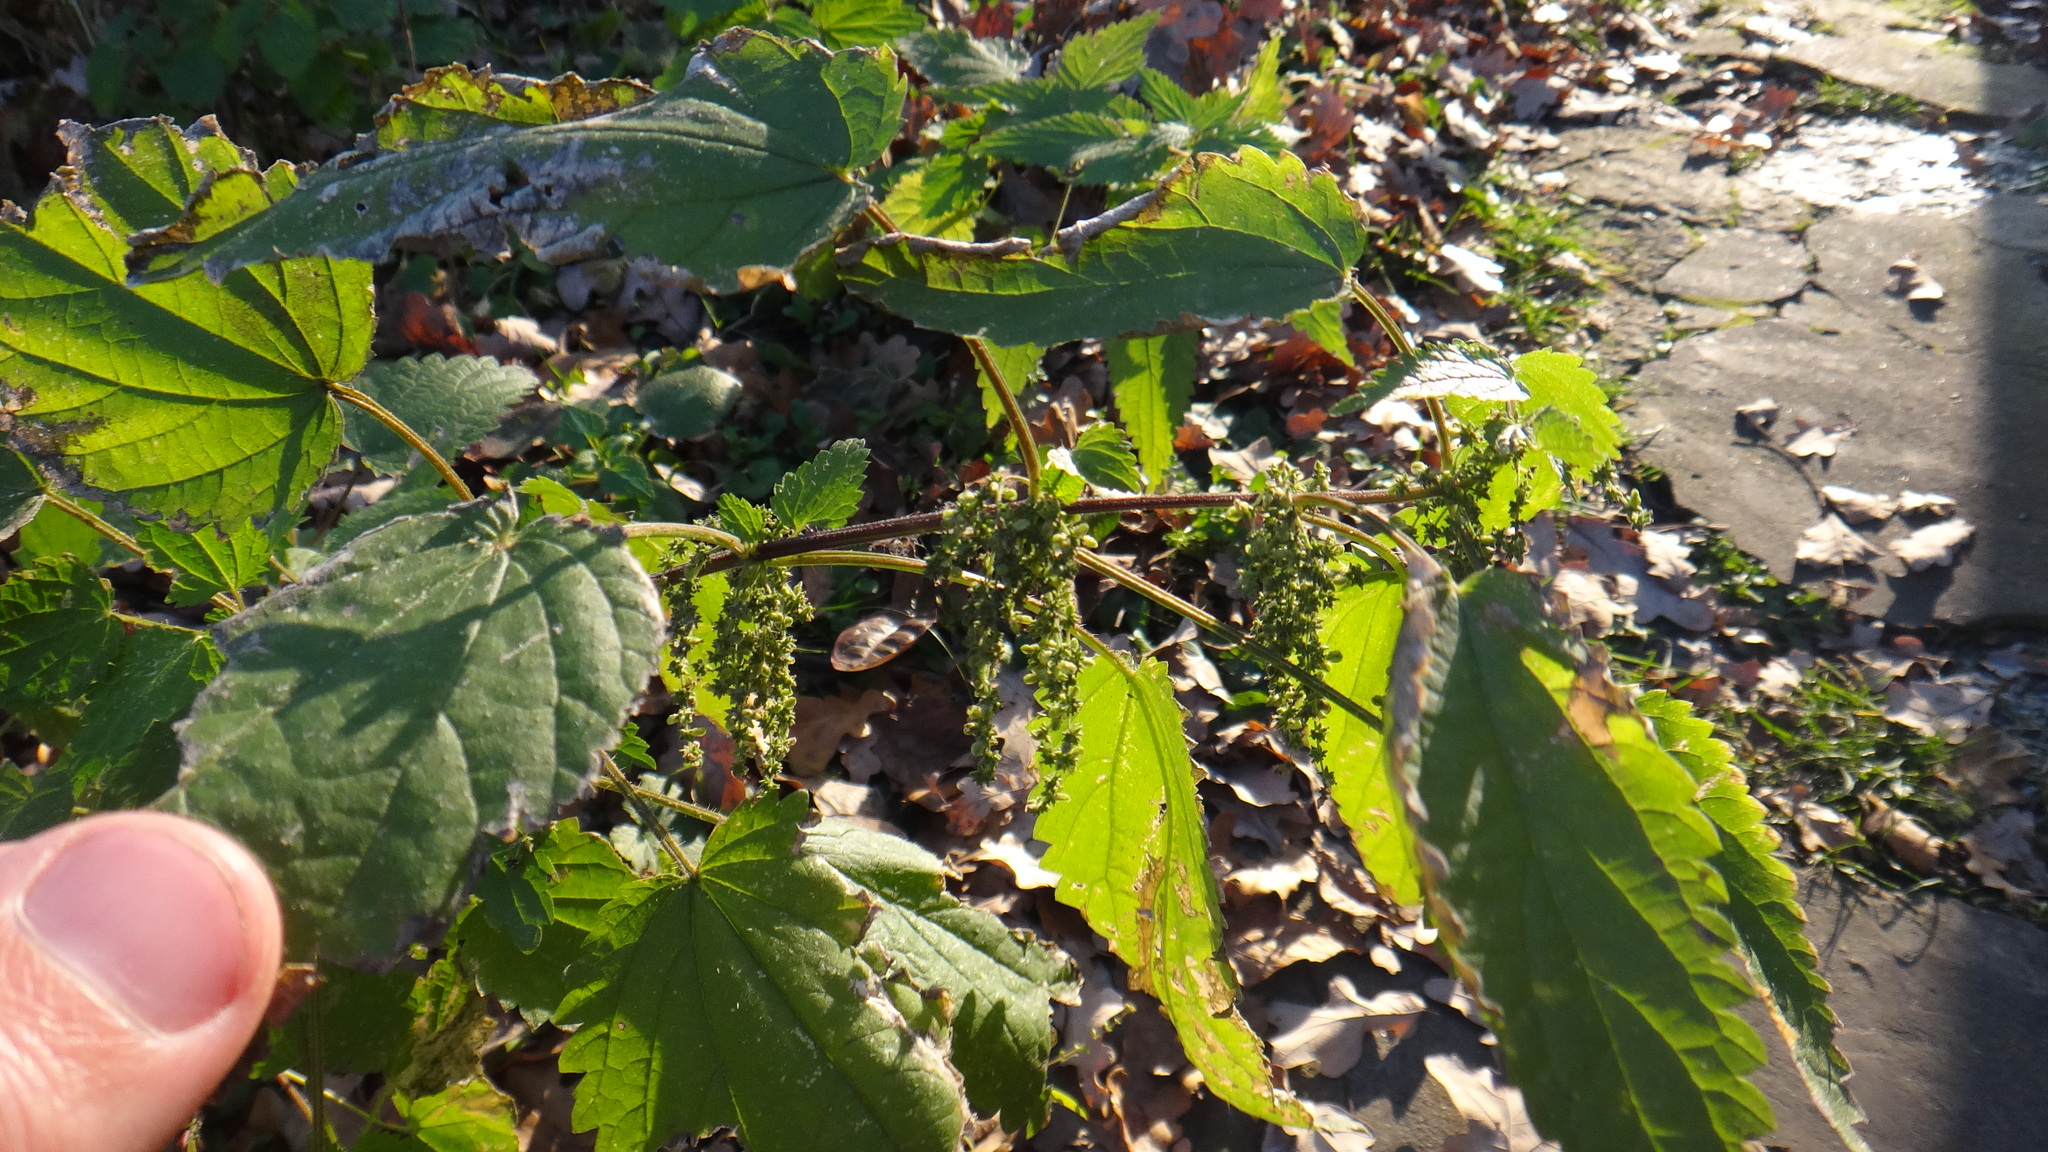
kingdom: Plantae
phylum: Tracheophyta
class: Magnoliopsida
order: Rosales
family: Urticaceae
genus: Urtica
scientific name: Urtica dioica
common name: Common nettle
